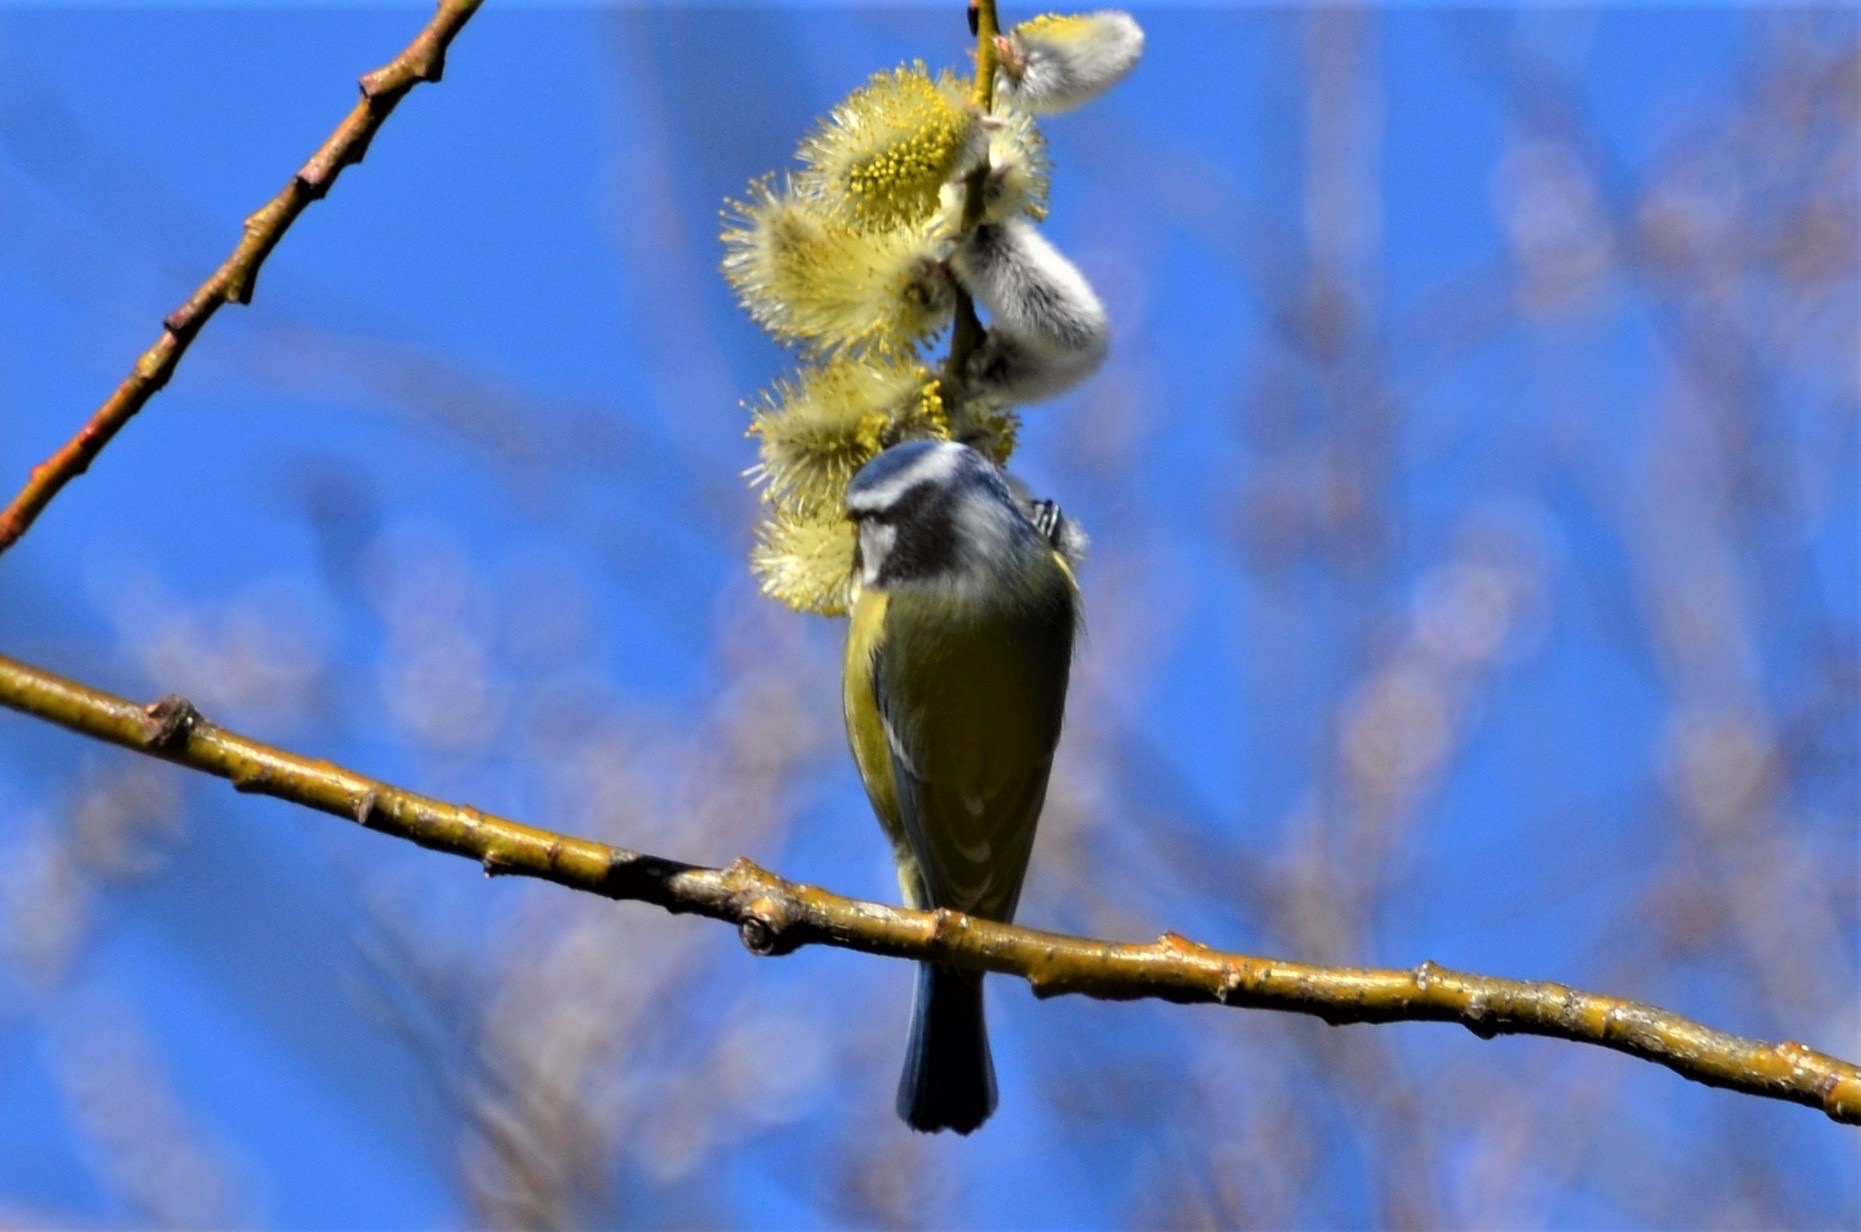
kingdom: Animalia
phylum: Chordata
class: Aves
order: Passeriformes
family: Paridae
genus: Cyanistes
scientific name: Cyanistes caeruleus
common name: Eurasian blue tit
